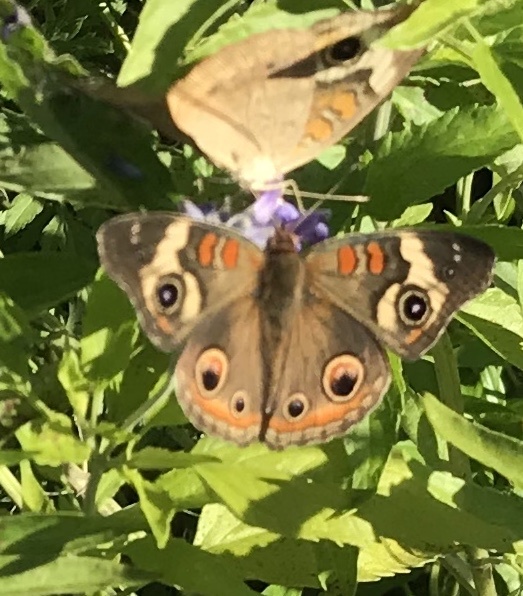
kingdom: Animalia
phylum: Arthropoda
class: Insecta
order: Lepidoptera
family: Nymphalidae
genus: Junonia
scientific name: Junonia coenia
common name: Common buckeye
